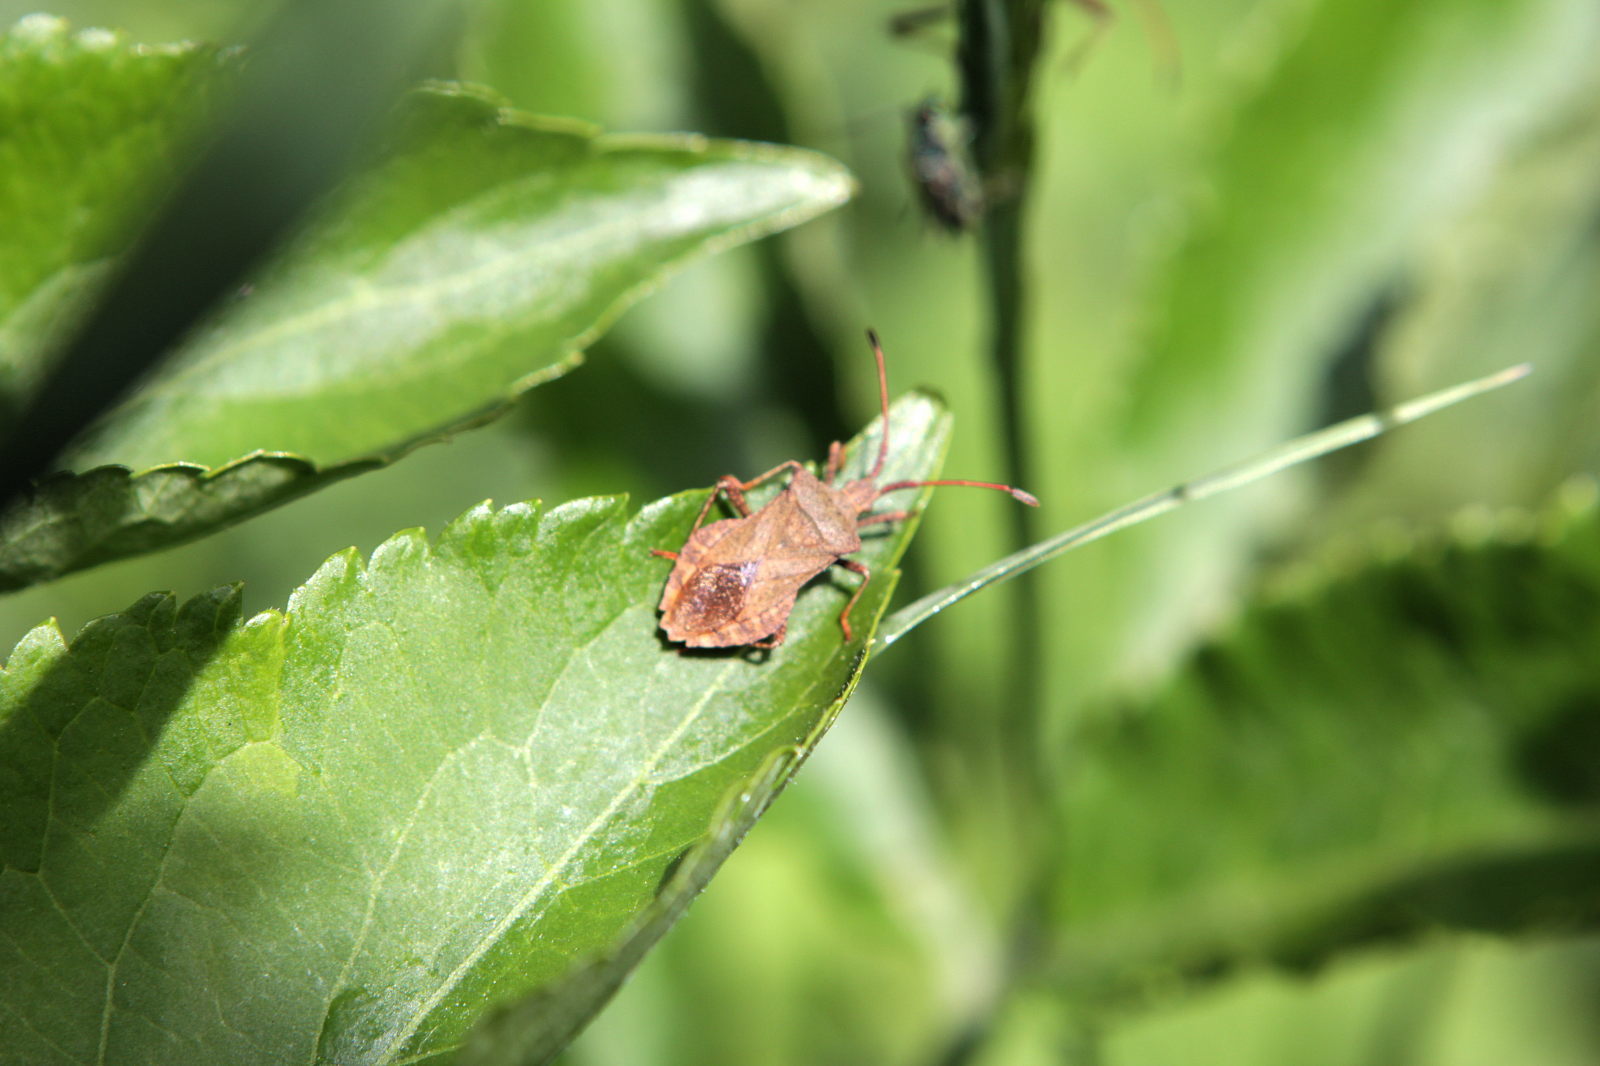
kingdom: Animalia
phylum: Arthropoda
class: Insecta
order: Hemiptera
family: Coreidae
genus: Coreus
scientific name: Coreus marginatus
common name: Dock bug
